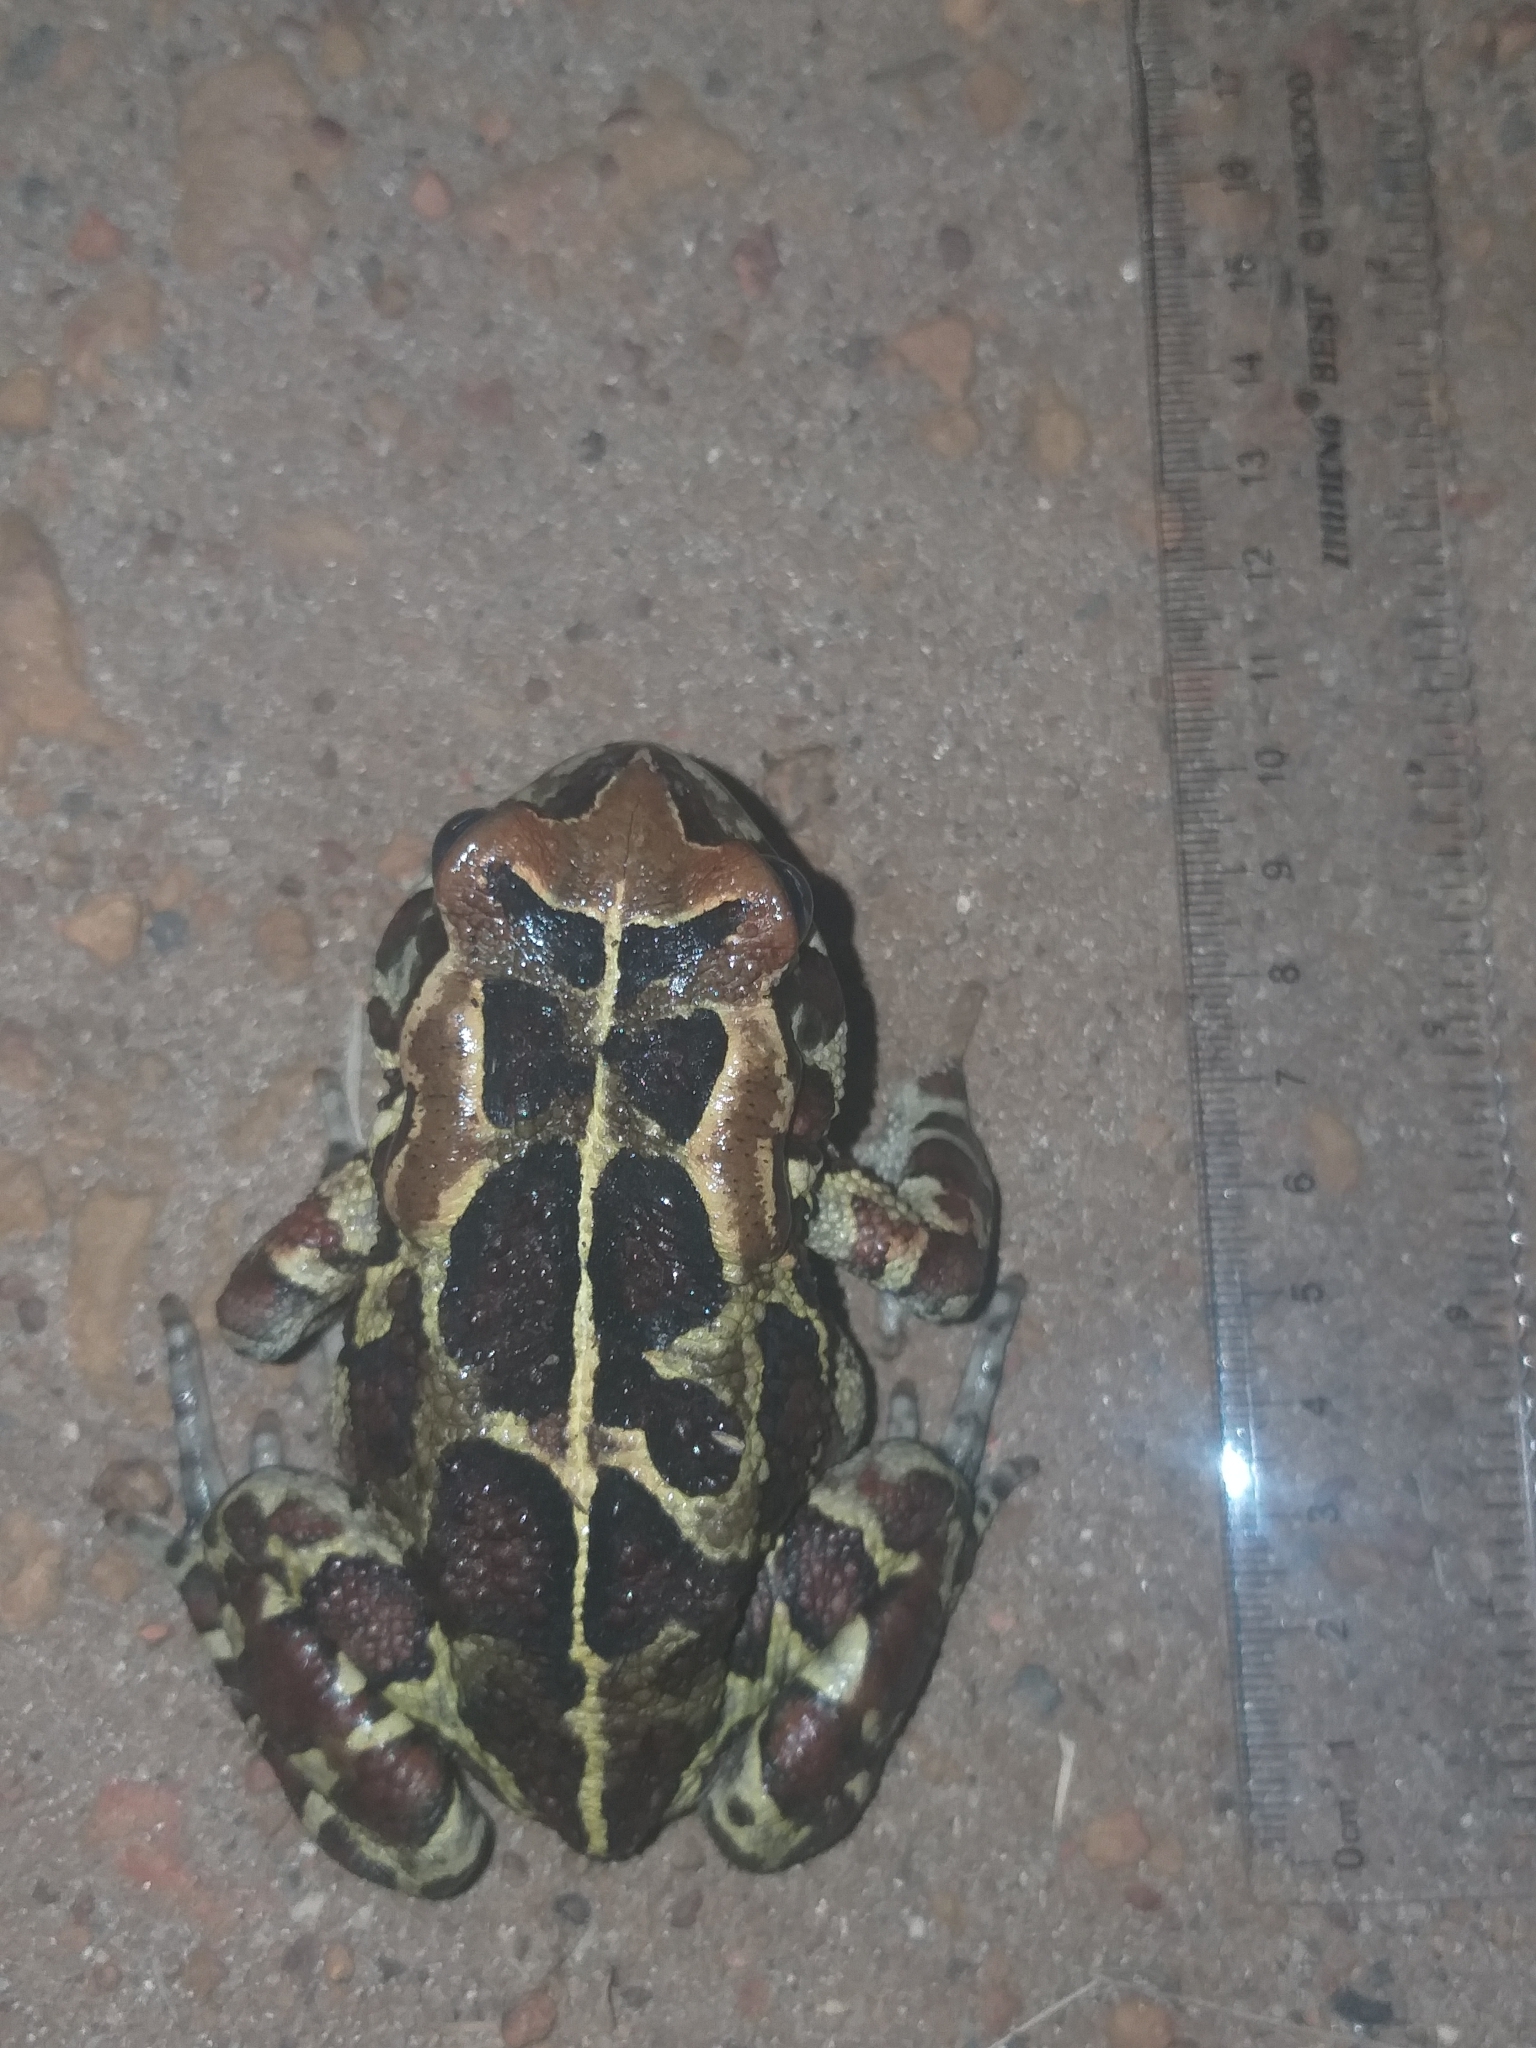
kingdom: Animalia
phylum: Chordata
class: Amphibia
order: Anura
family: Bufonidae
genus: Sclerophrys
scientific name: Sclerophrys pantherina
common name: Panther toad
